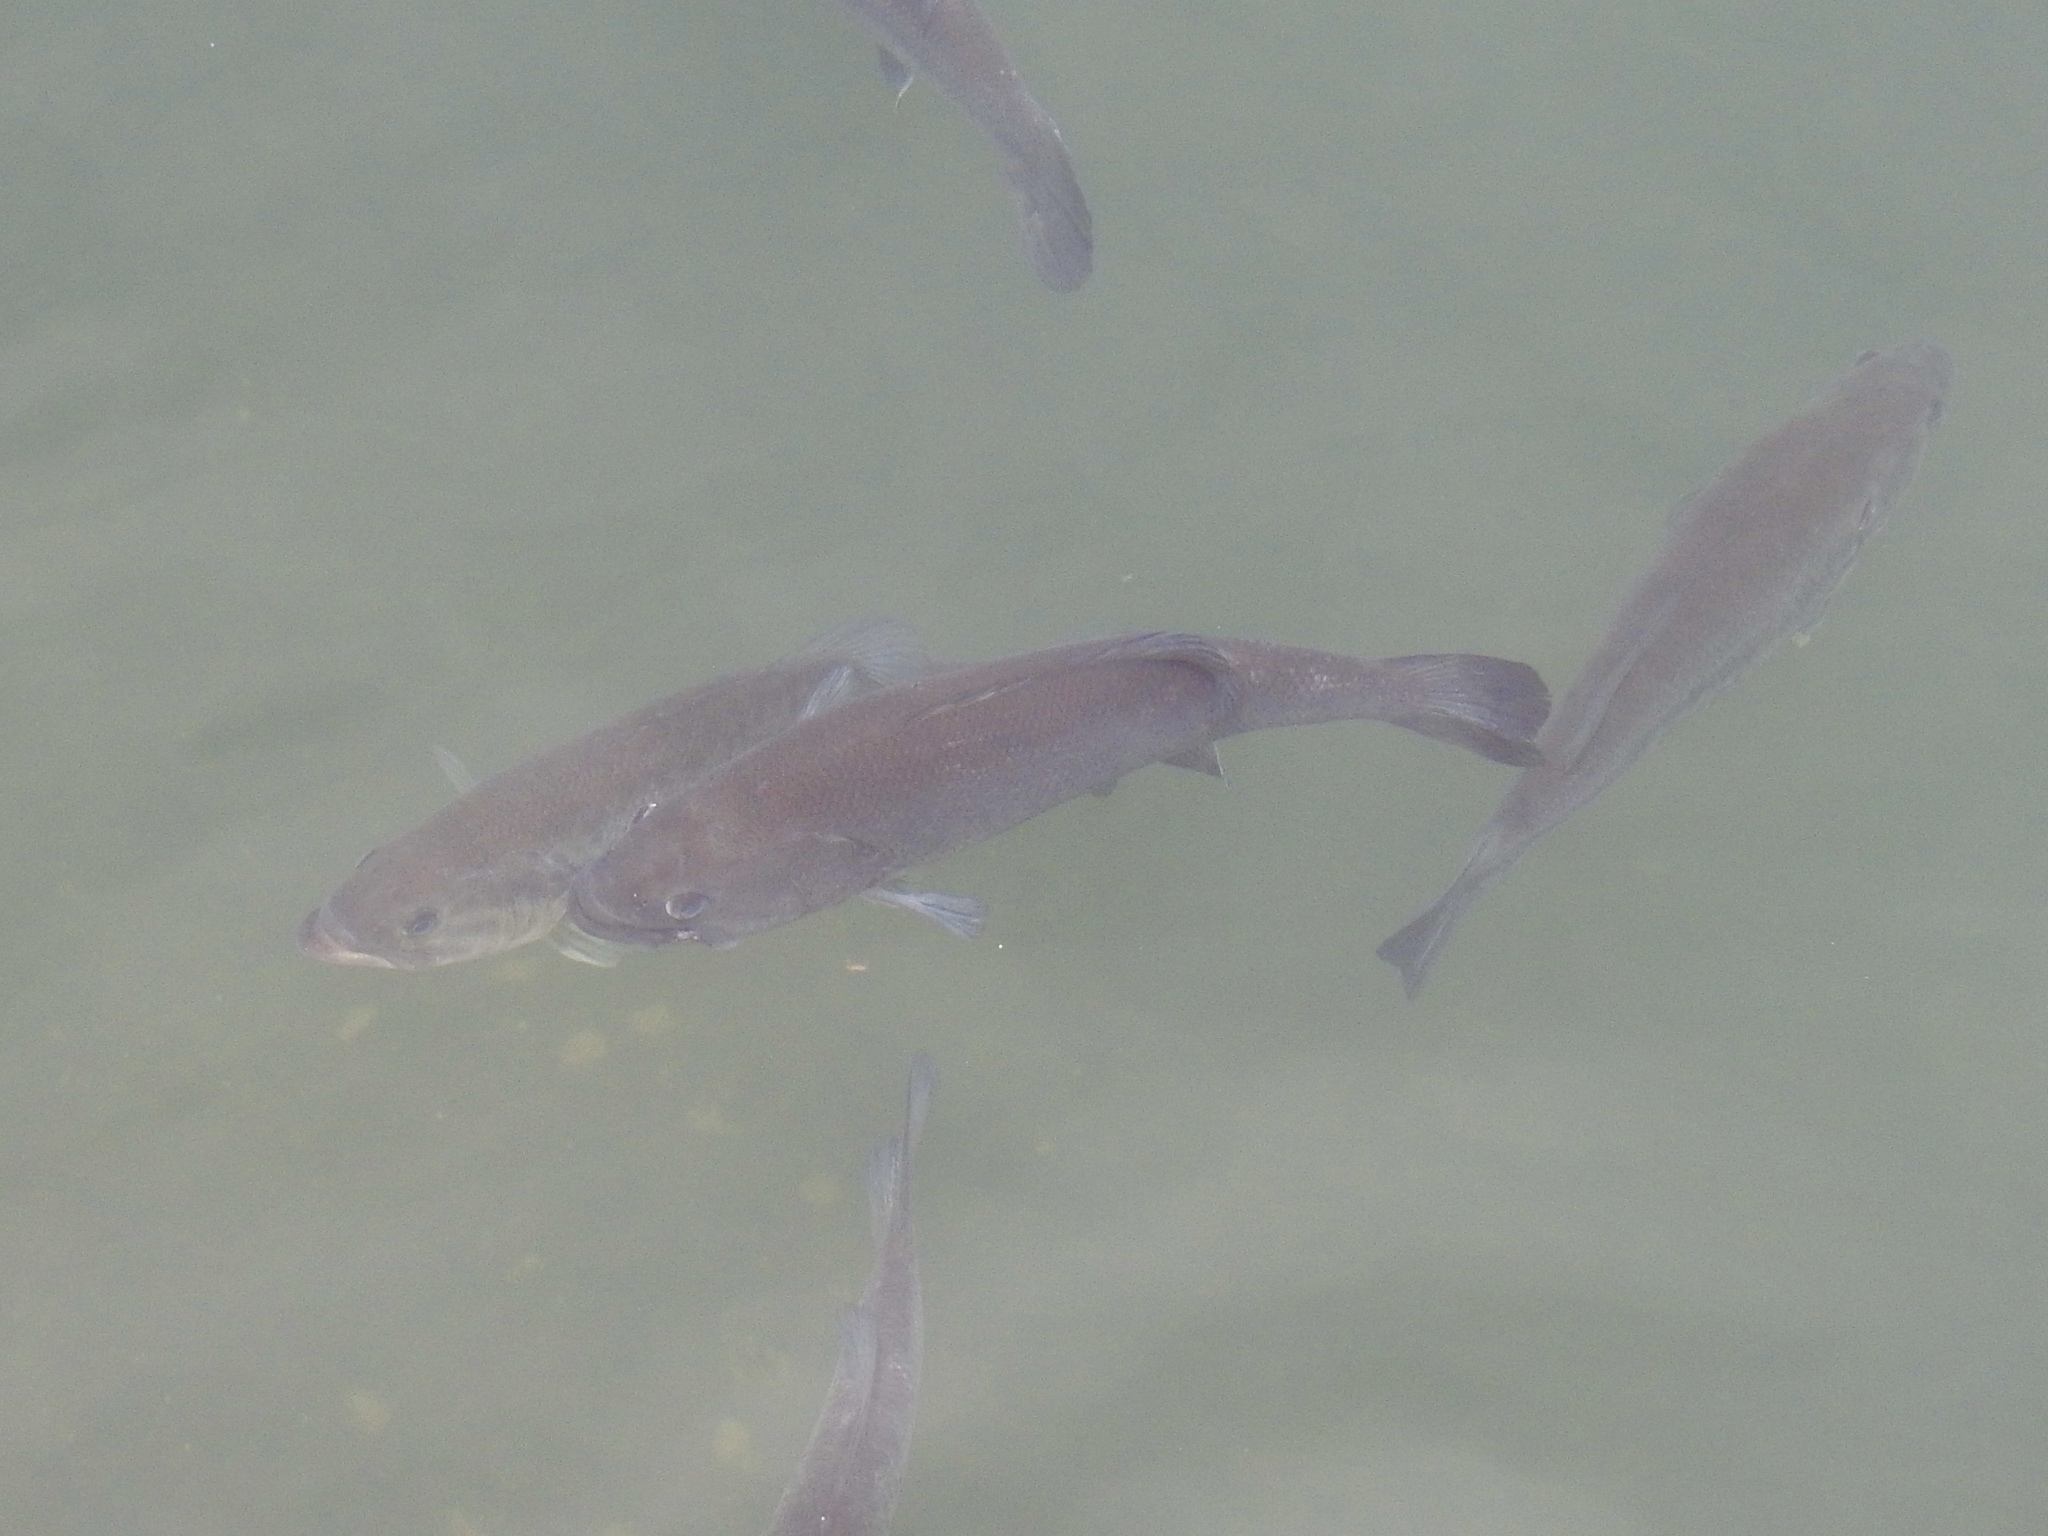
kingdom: Animalia
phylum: Chordata
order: Perciformes
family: Centrarchidae
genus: Micropterus
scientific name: Micropterus
